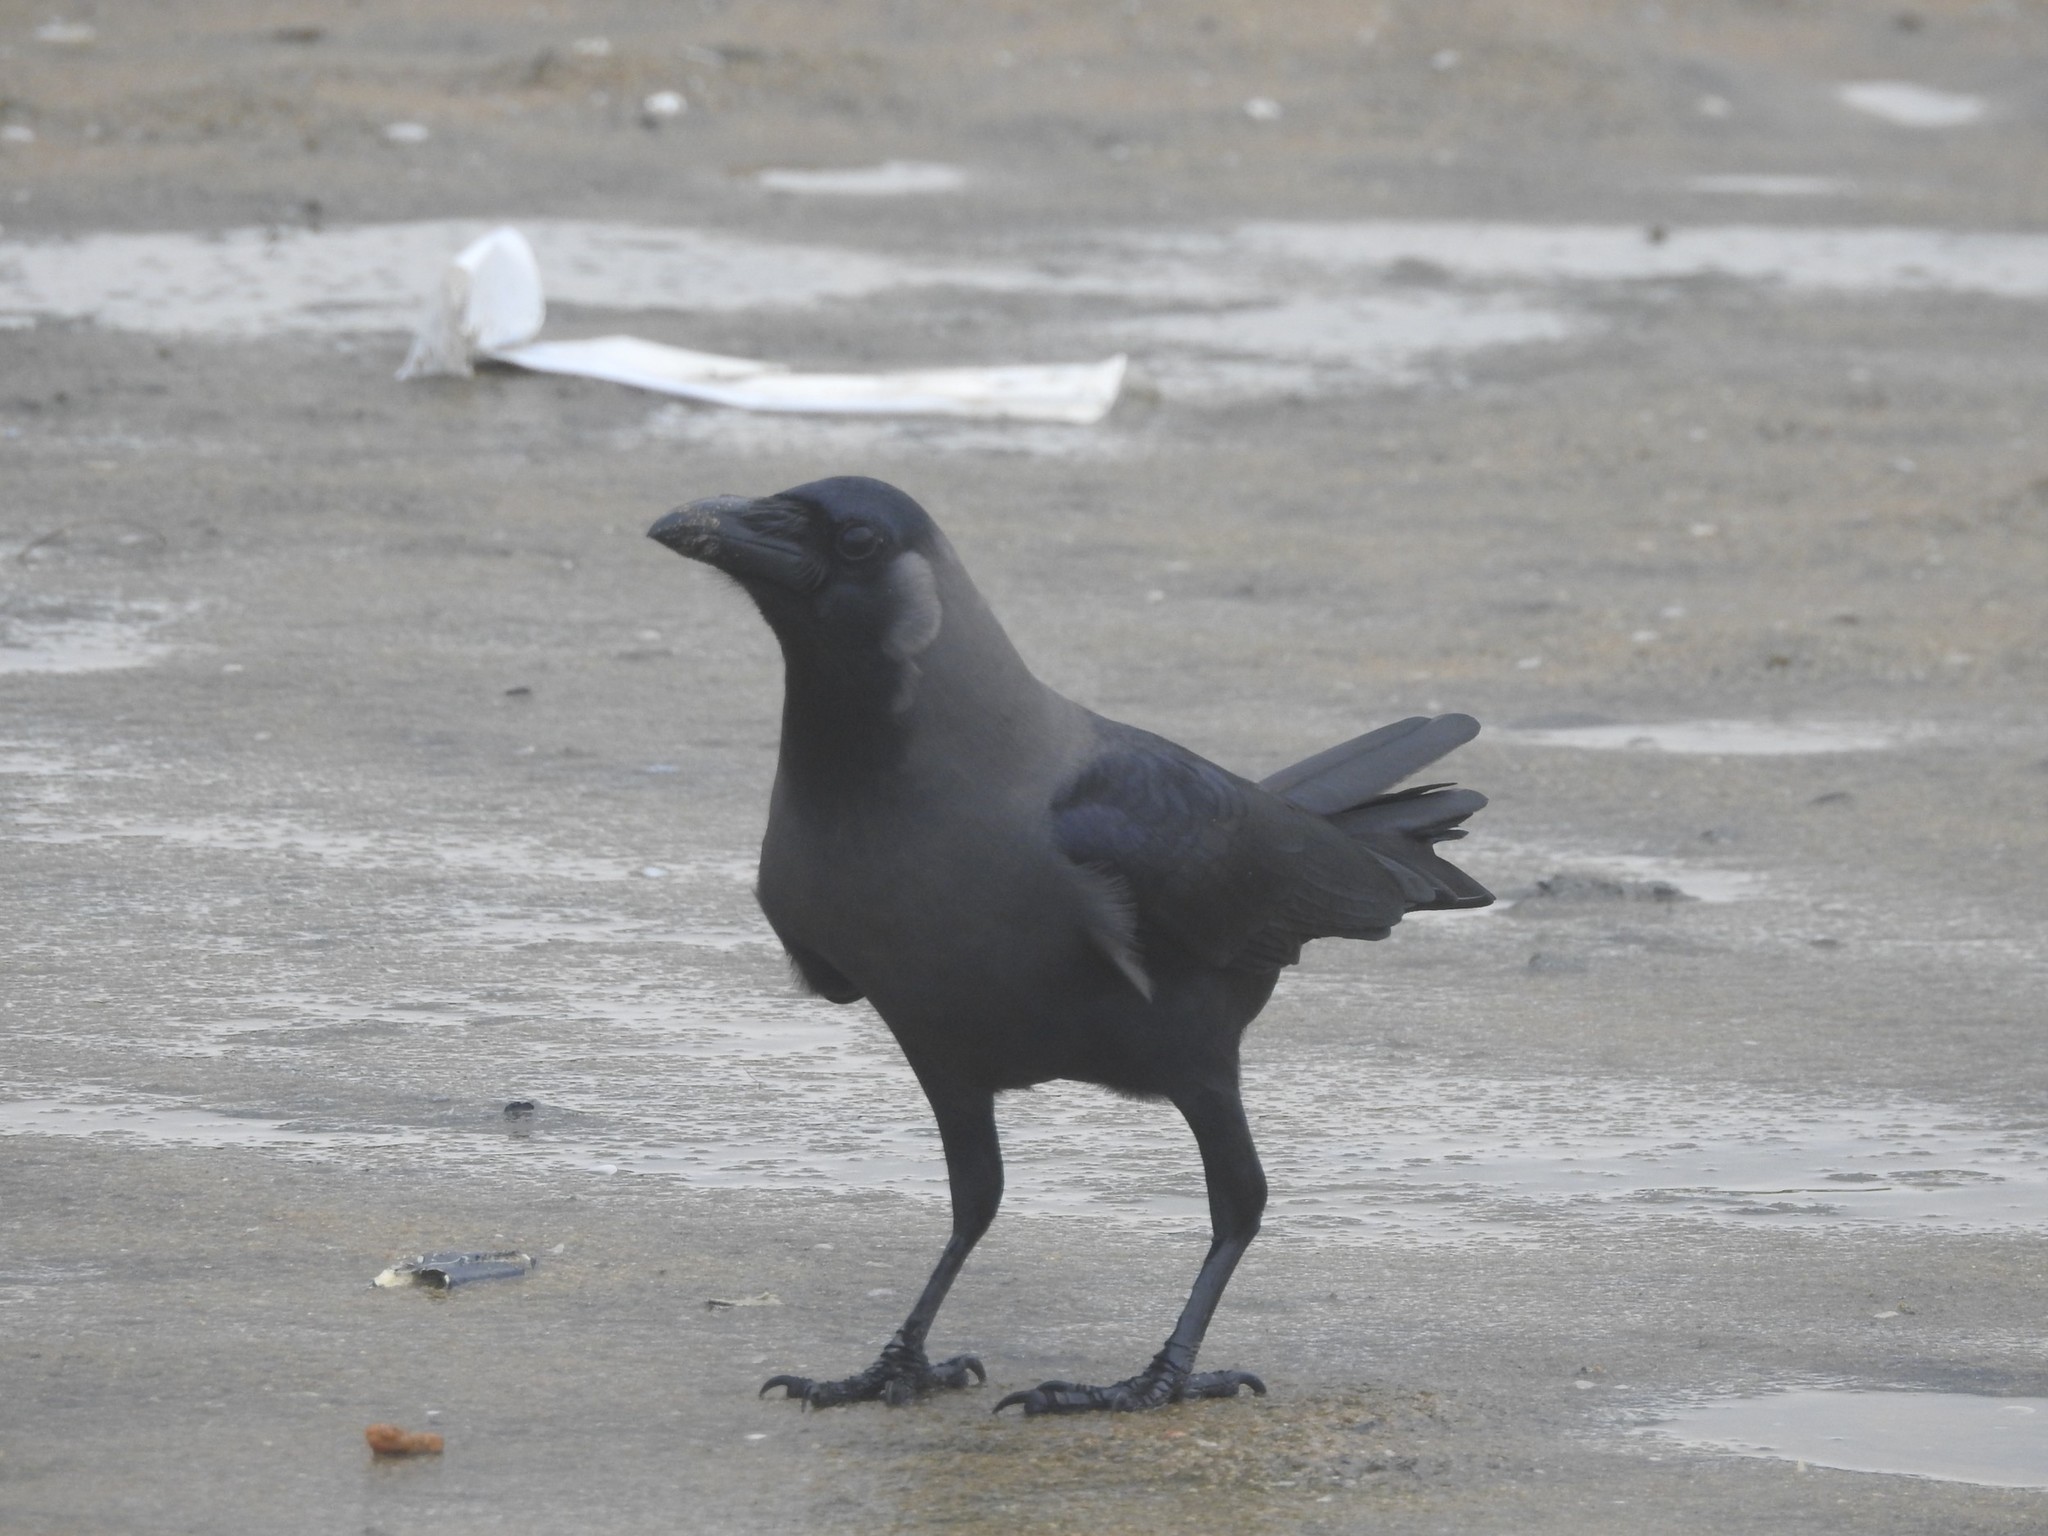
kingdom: Animalia
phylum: Chordata
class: Aves
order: Passeriformes
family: Corvidae
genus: Corvus
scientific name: Corvus splendens
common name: House crow
